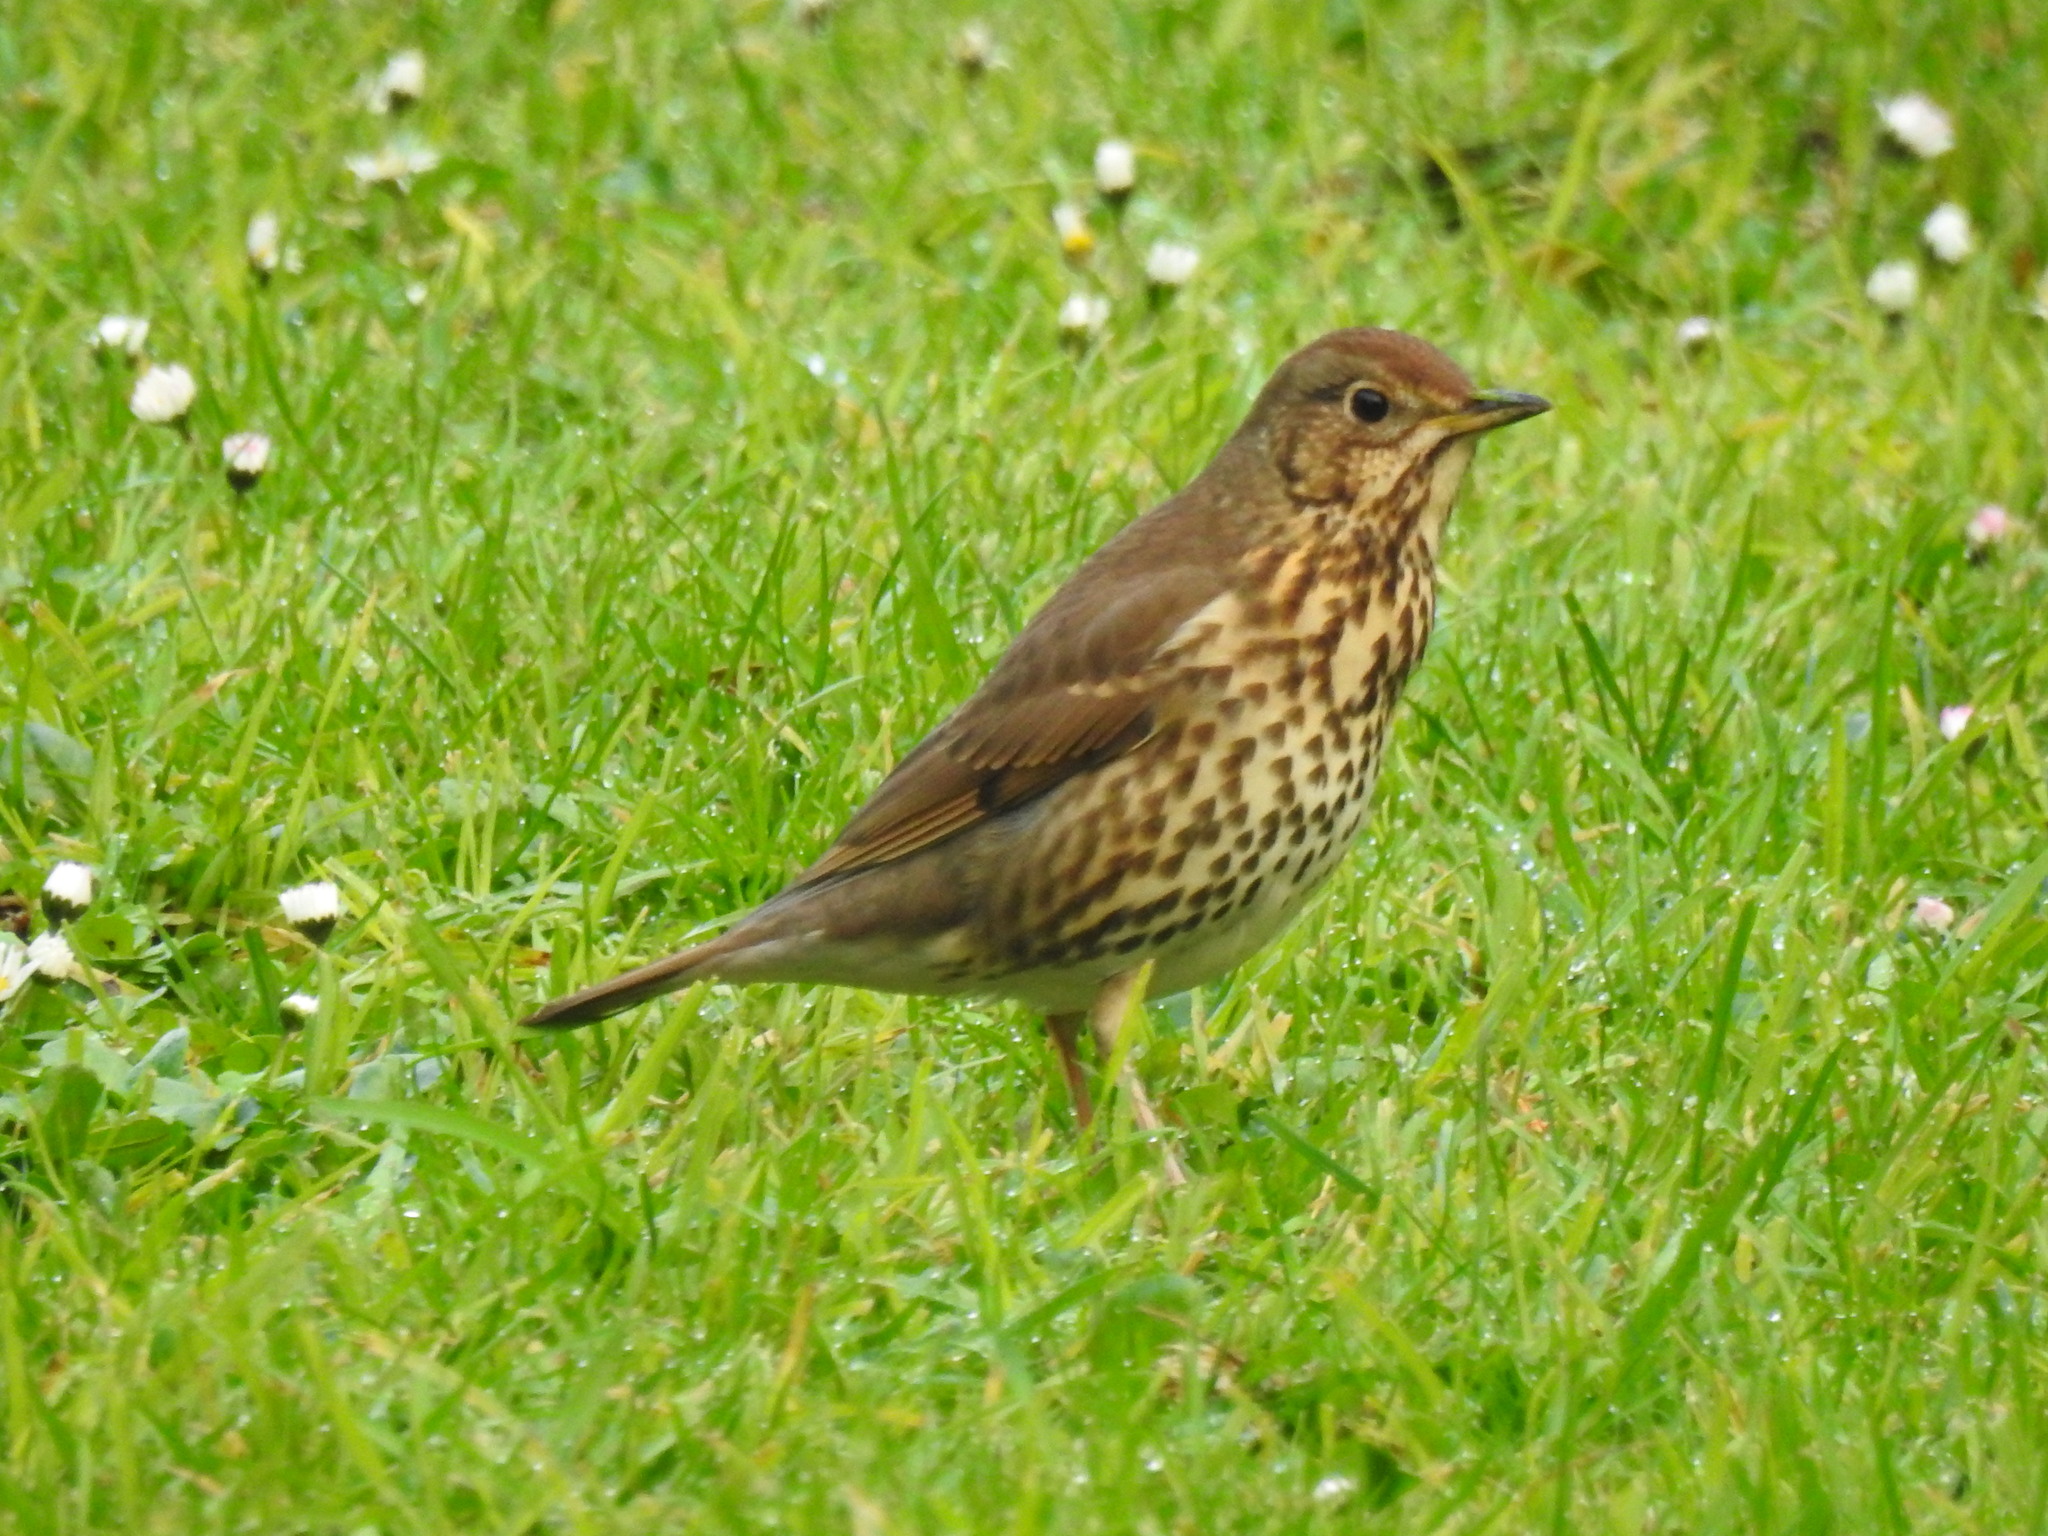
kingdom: Animalia
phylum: Chordata
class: Aves
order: Passeriformes
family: Turdidae
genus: Turdus
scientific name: Turdus philomelos
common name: Song thrush
